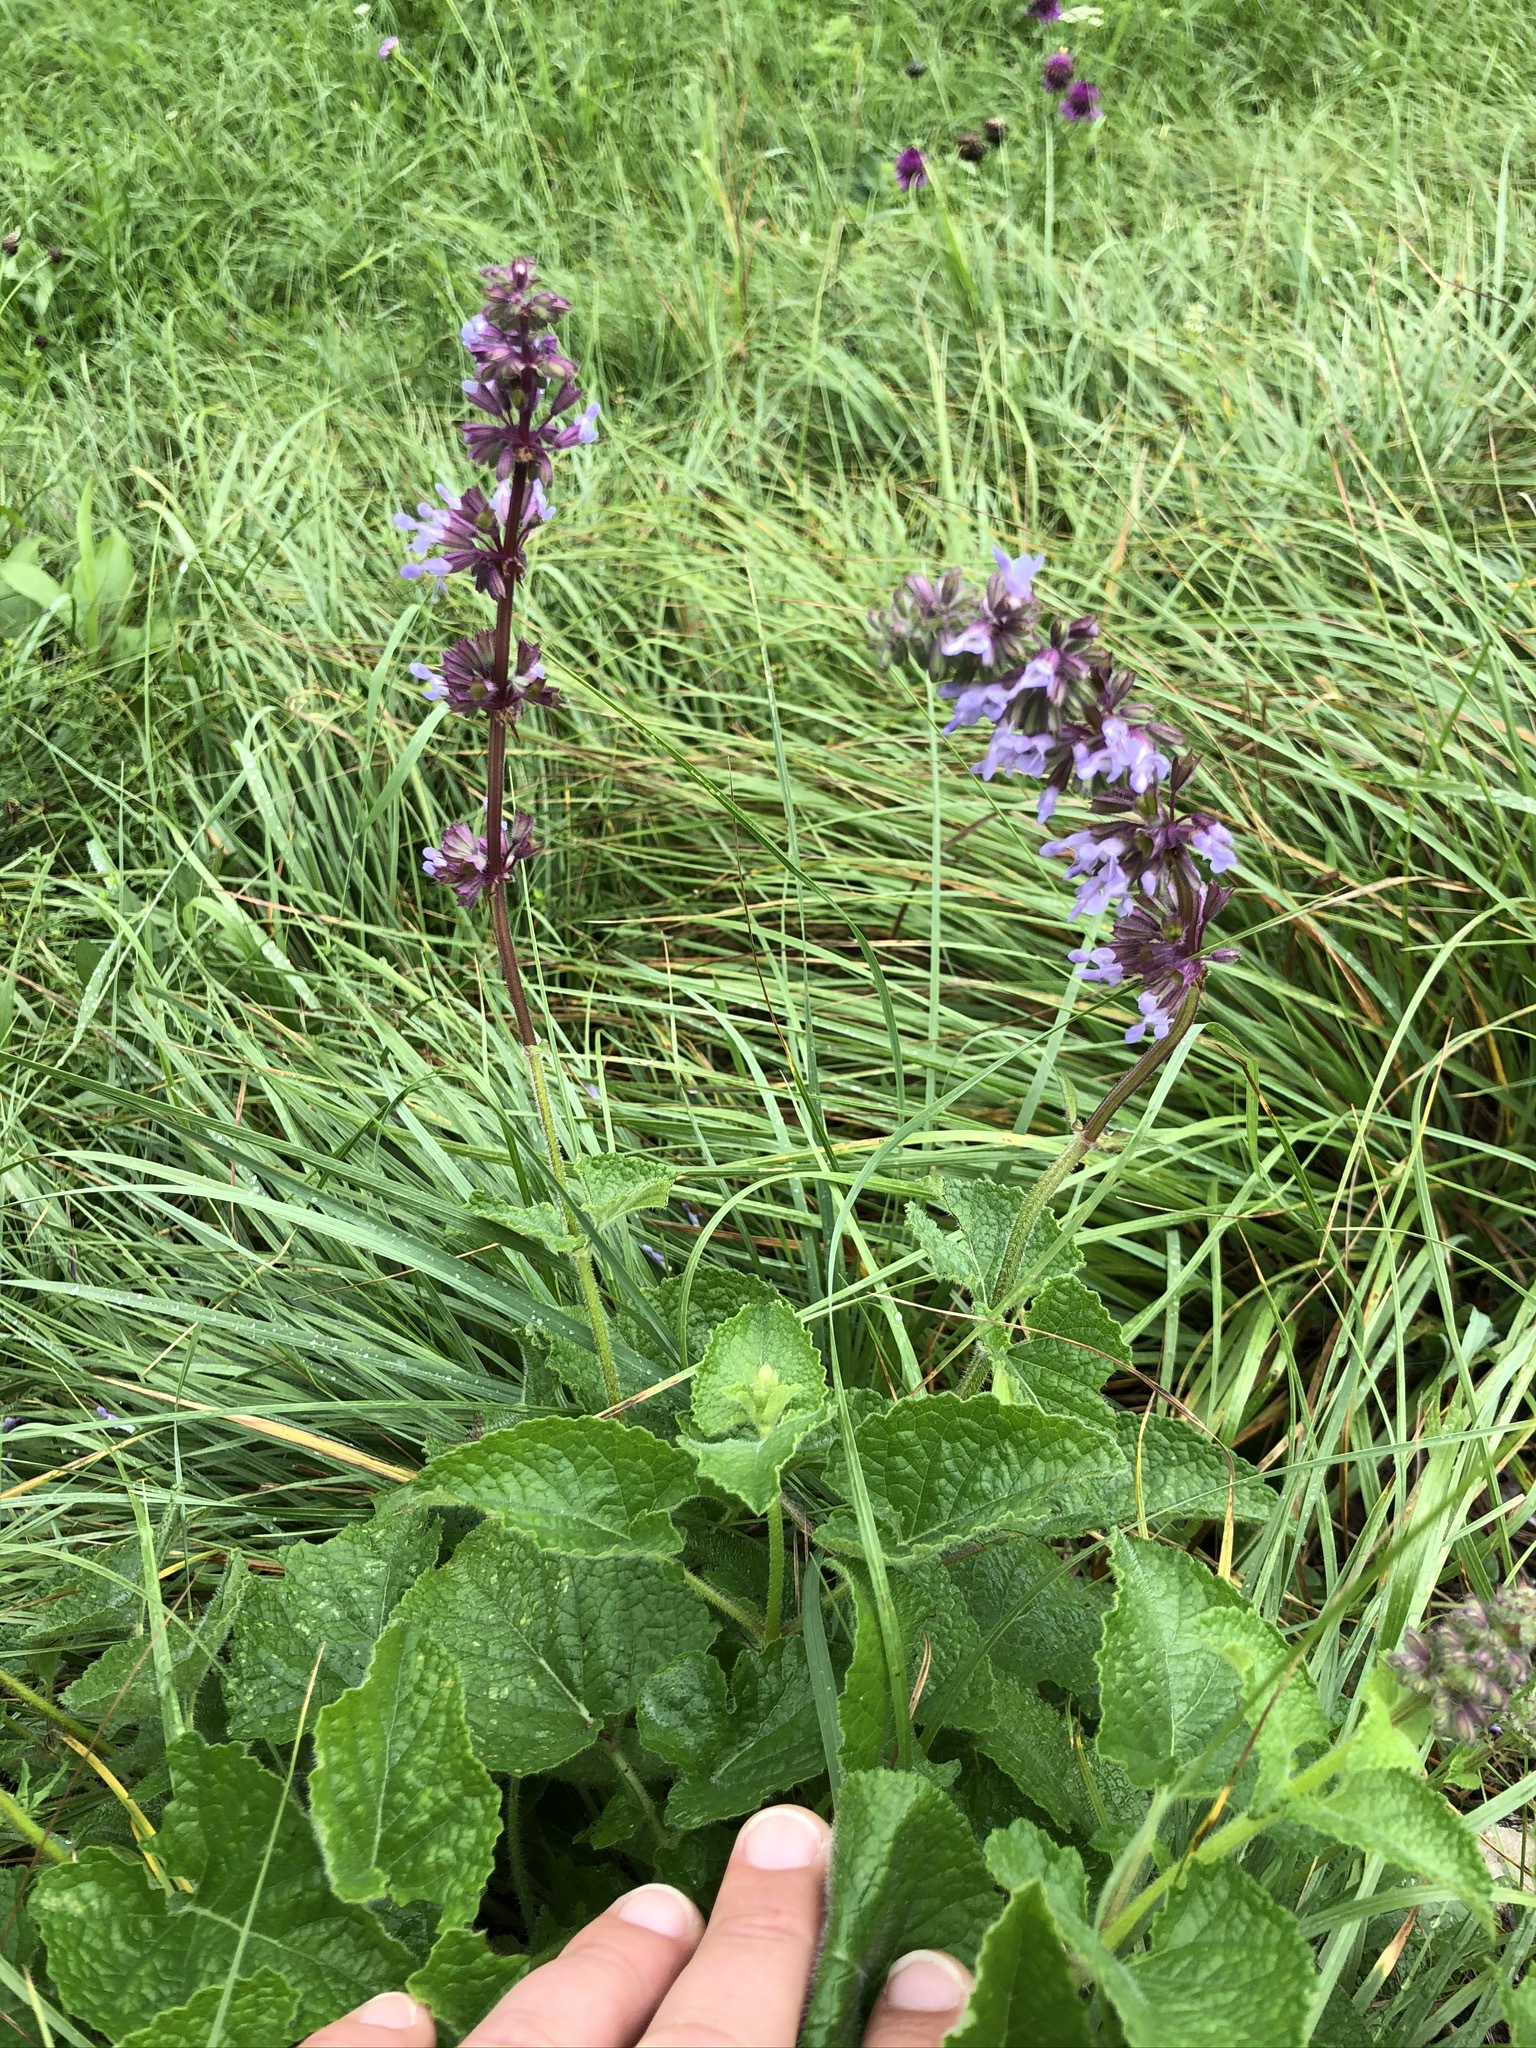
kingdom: Plantae
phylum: Tracheophyta
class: Magnoliopsida
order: Lamiales
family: Lamiaceae
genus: Salvia
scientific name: Salvia verticillata
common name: Whorled clary
